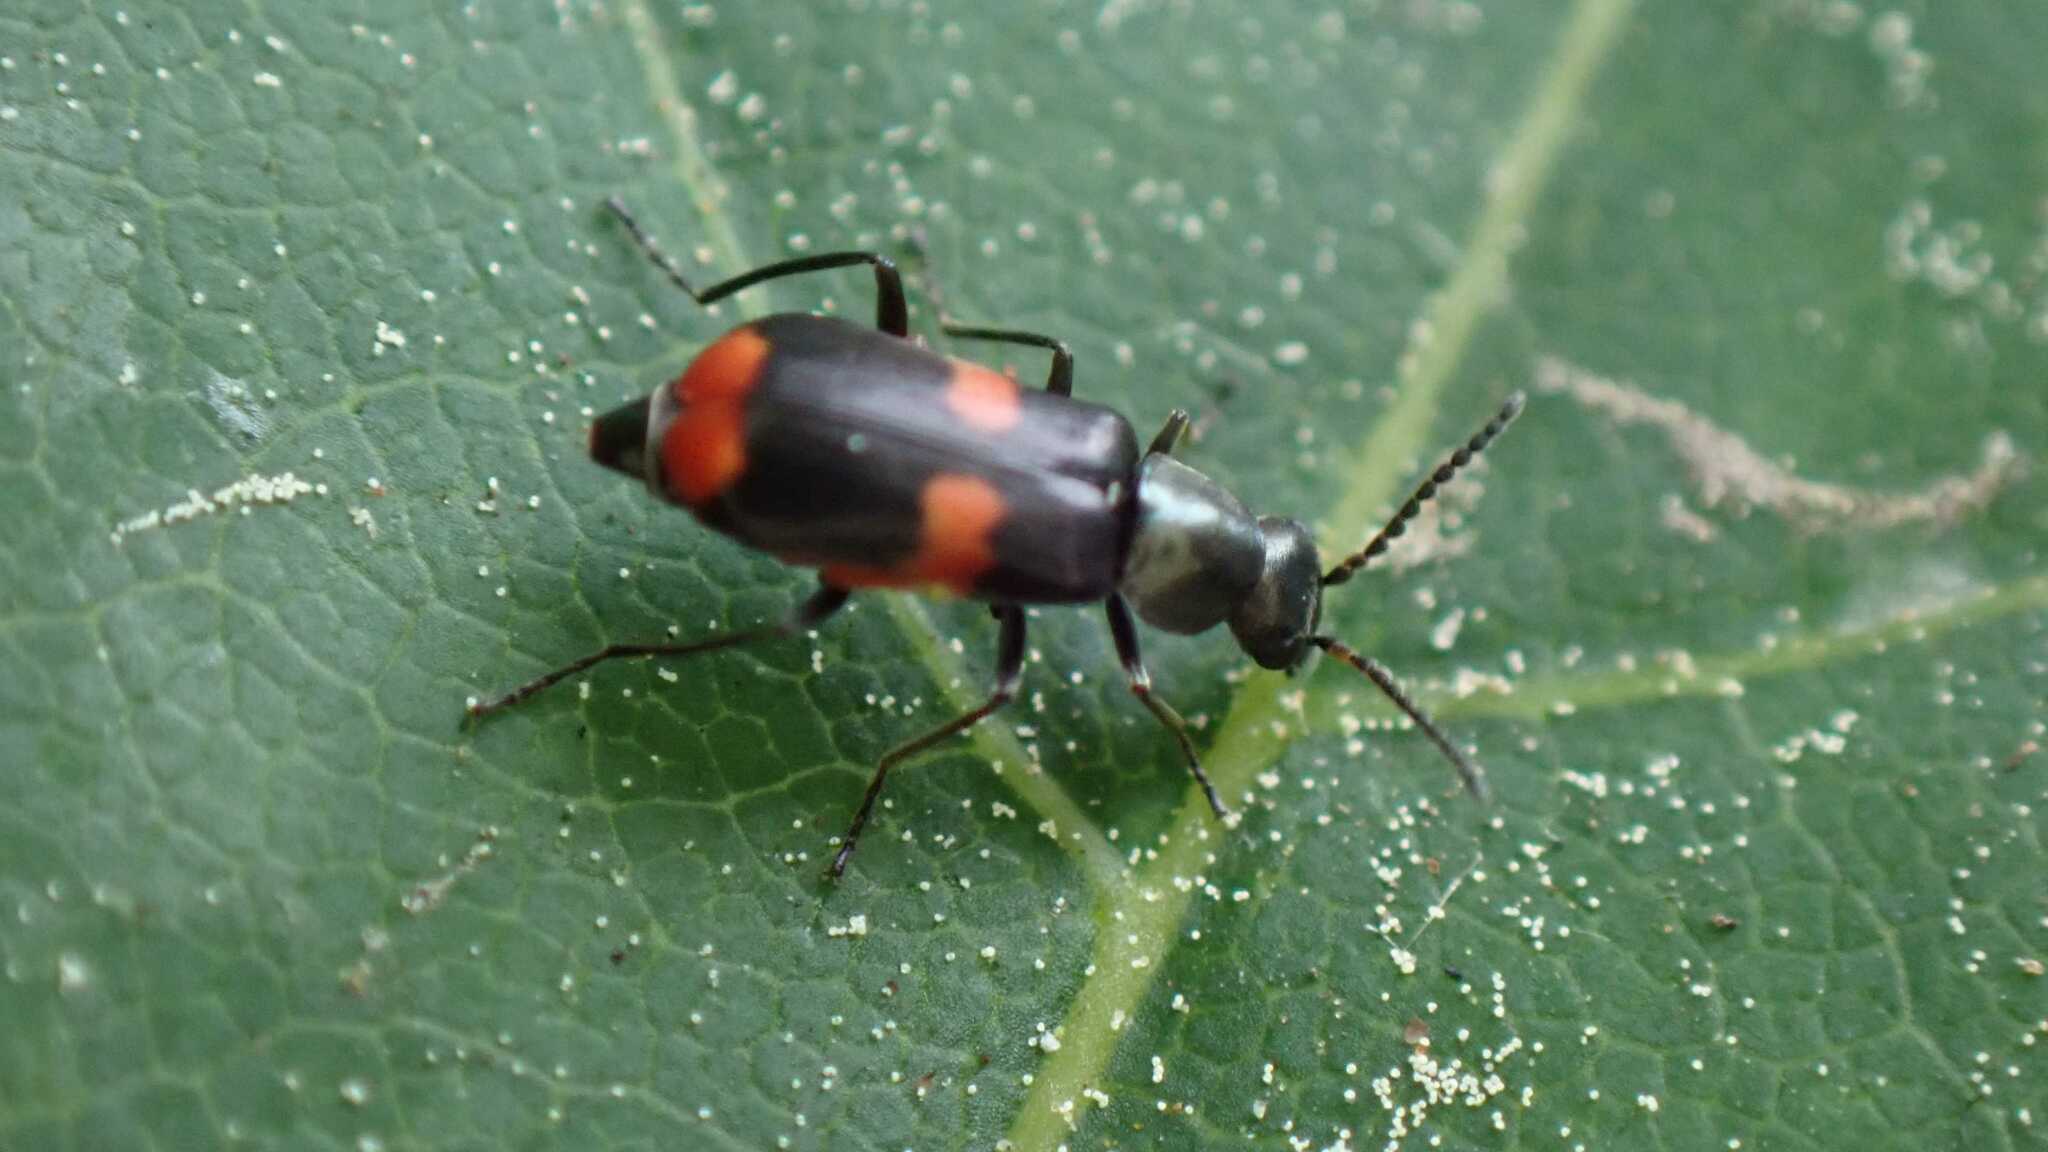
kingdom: Animalia
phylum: Arthropoda
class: Insecta
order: Coleoptera
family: Melyridae
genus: Anthocomus
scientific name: Anthocomus fasciatus
